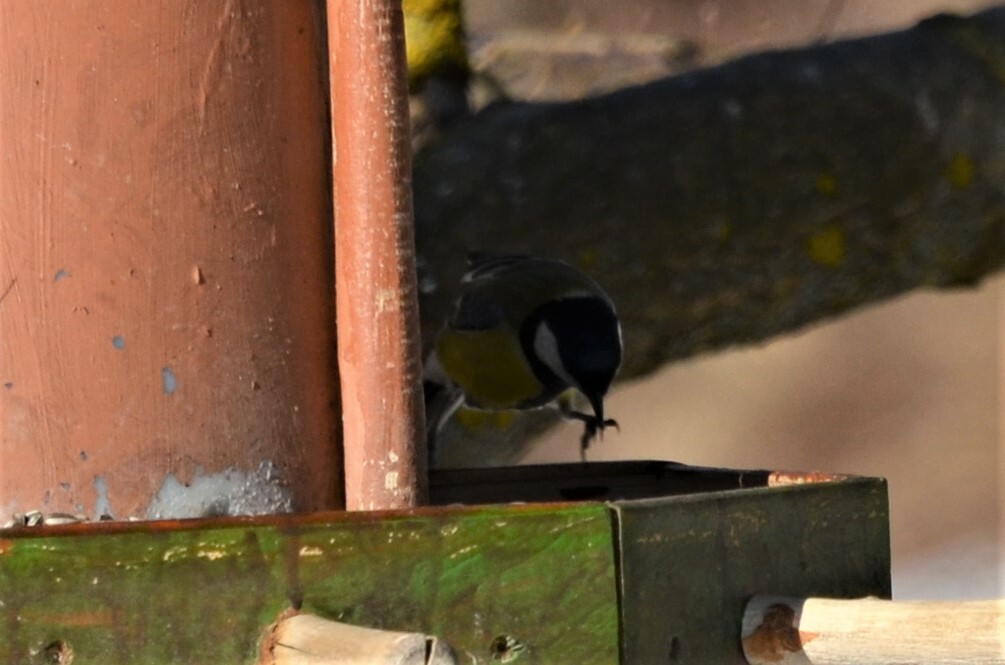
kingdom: Animalia
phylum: Chordata
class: Aves
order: Passeriformes
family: Paridae
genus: Parus
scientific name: Parus major
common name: Great tit
